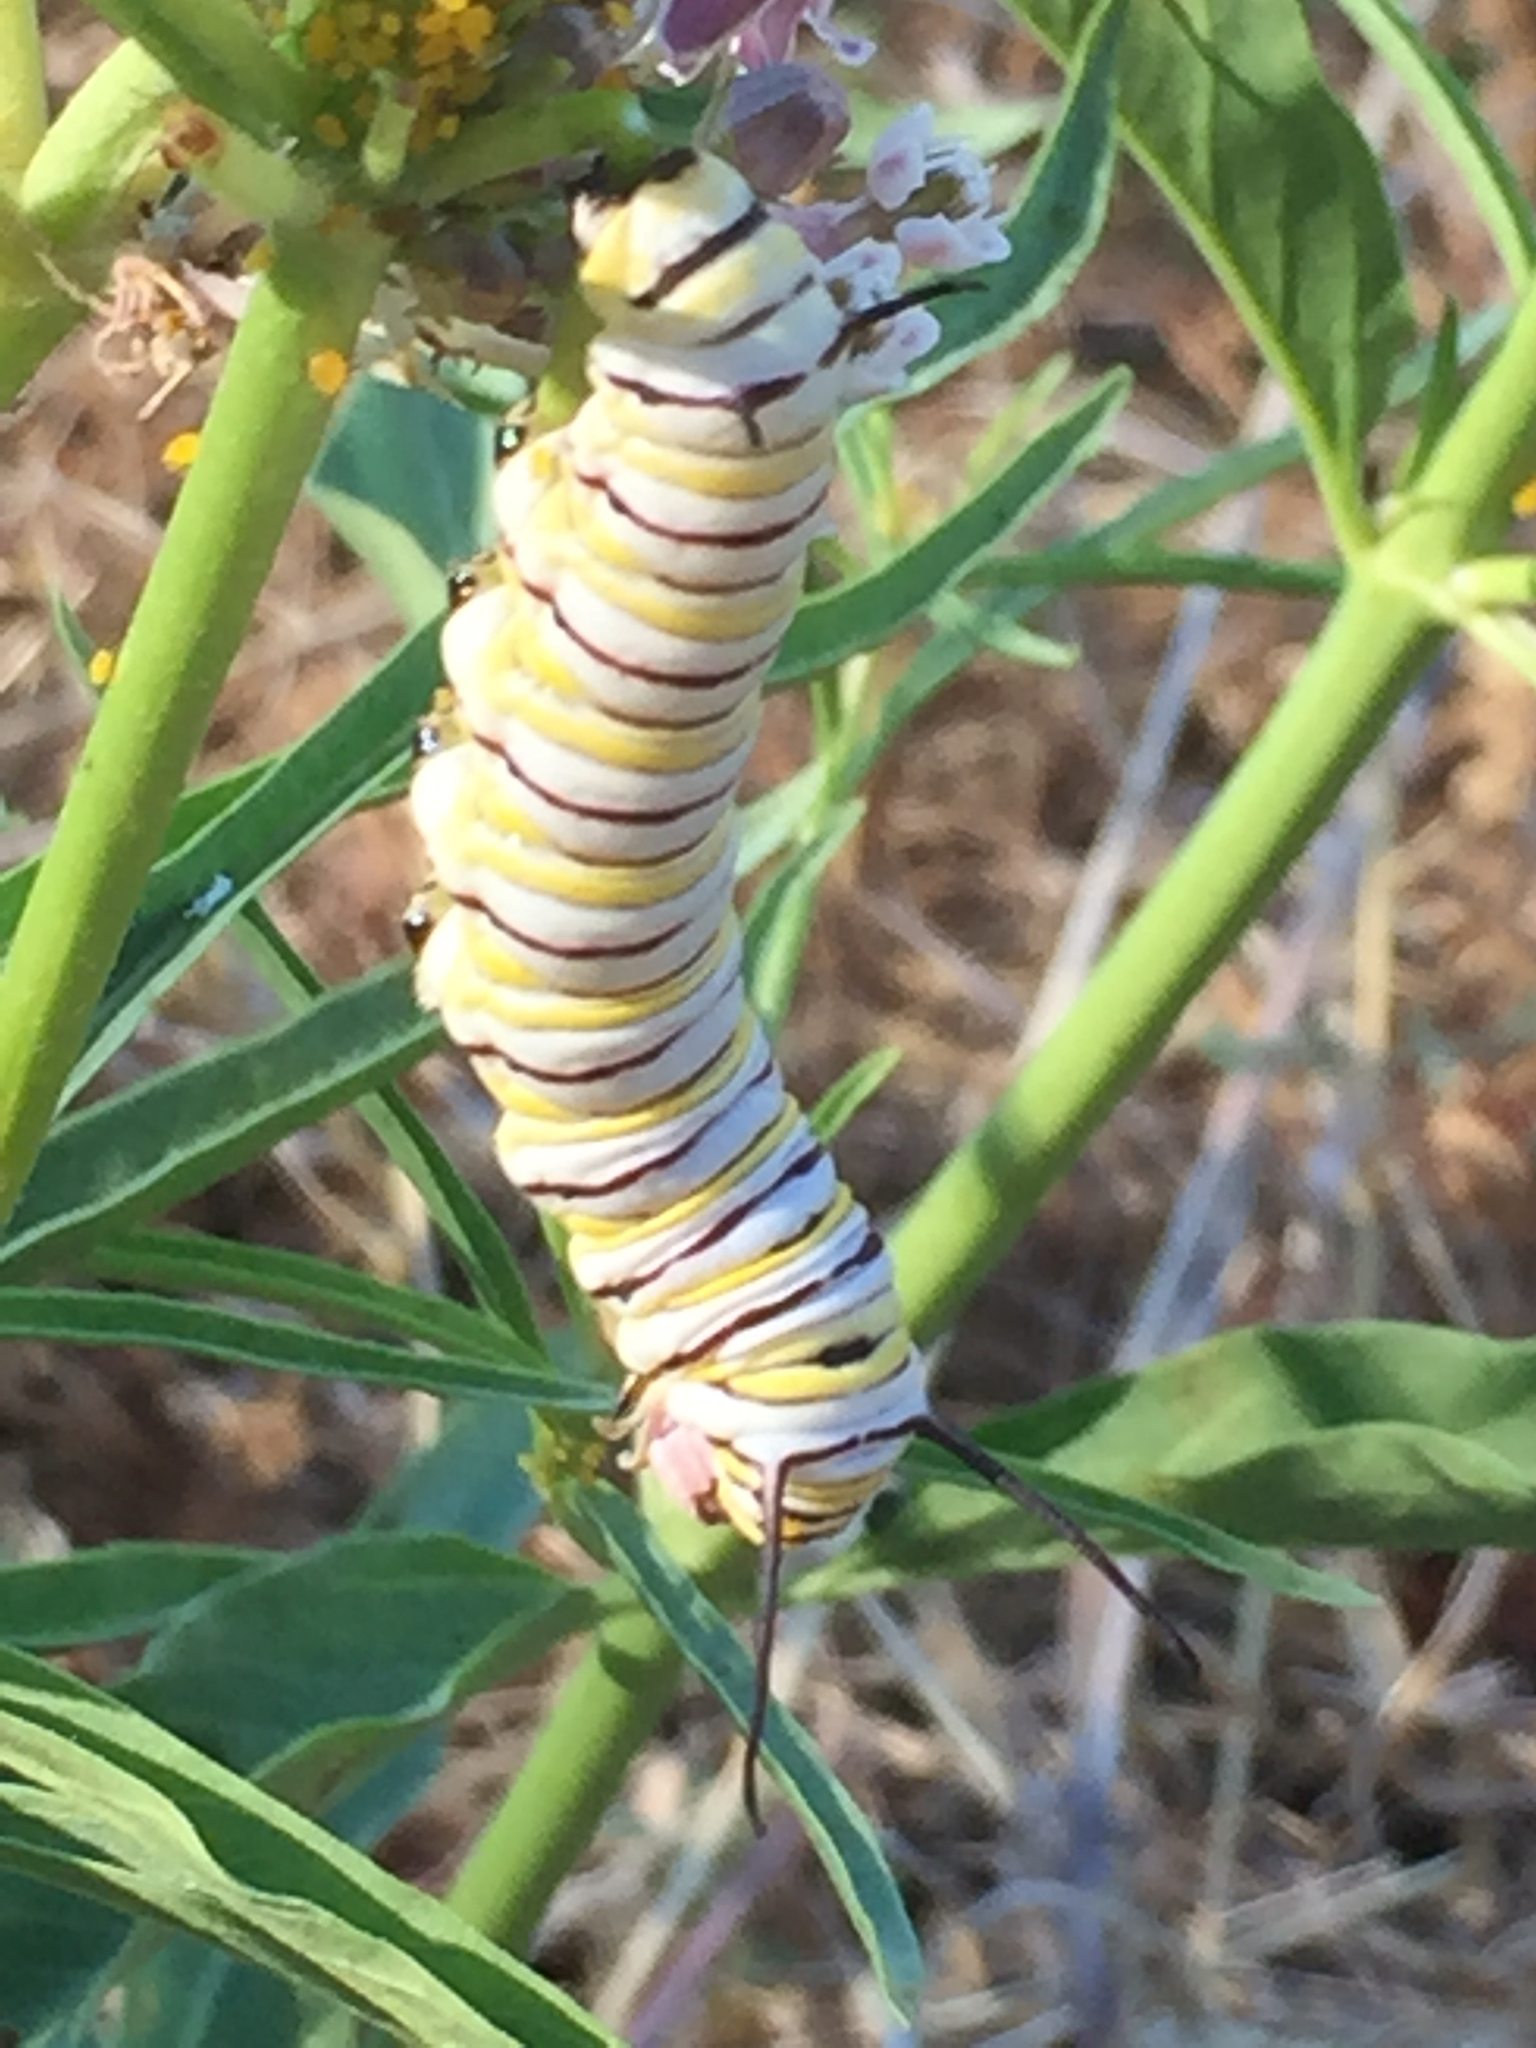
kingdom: Animalia
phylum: Arthropoda
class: Insecta
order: Lepidoptera
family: Nymphalidae
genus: Danaus
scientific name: Danaus plexippus
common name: Monarch
